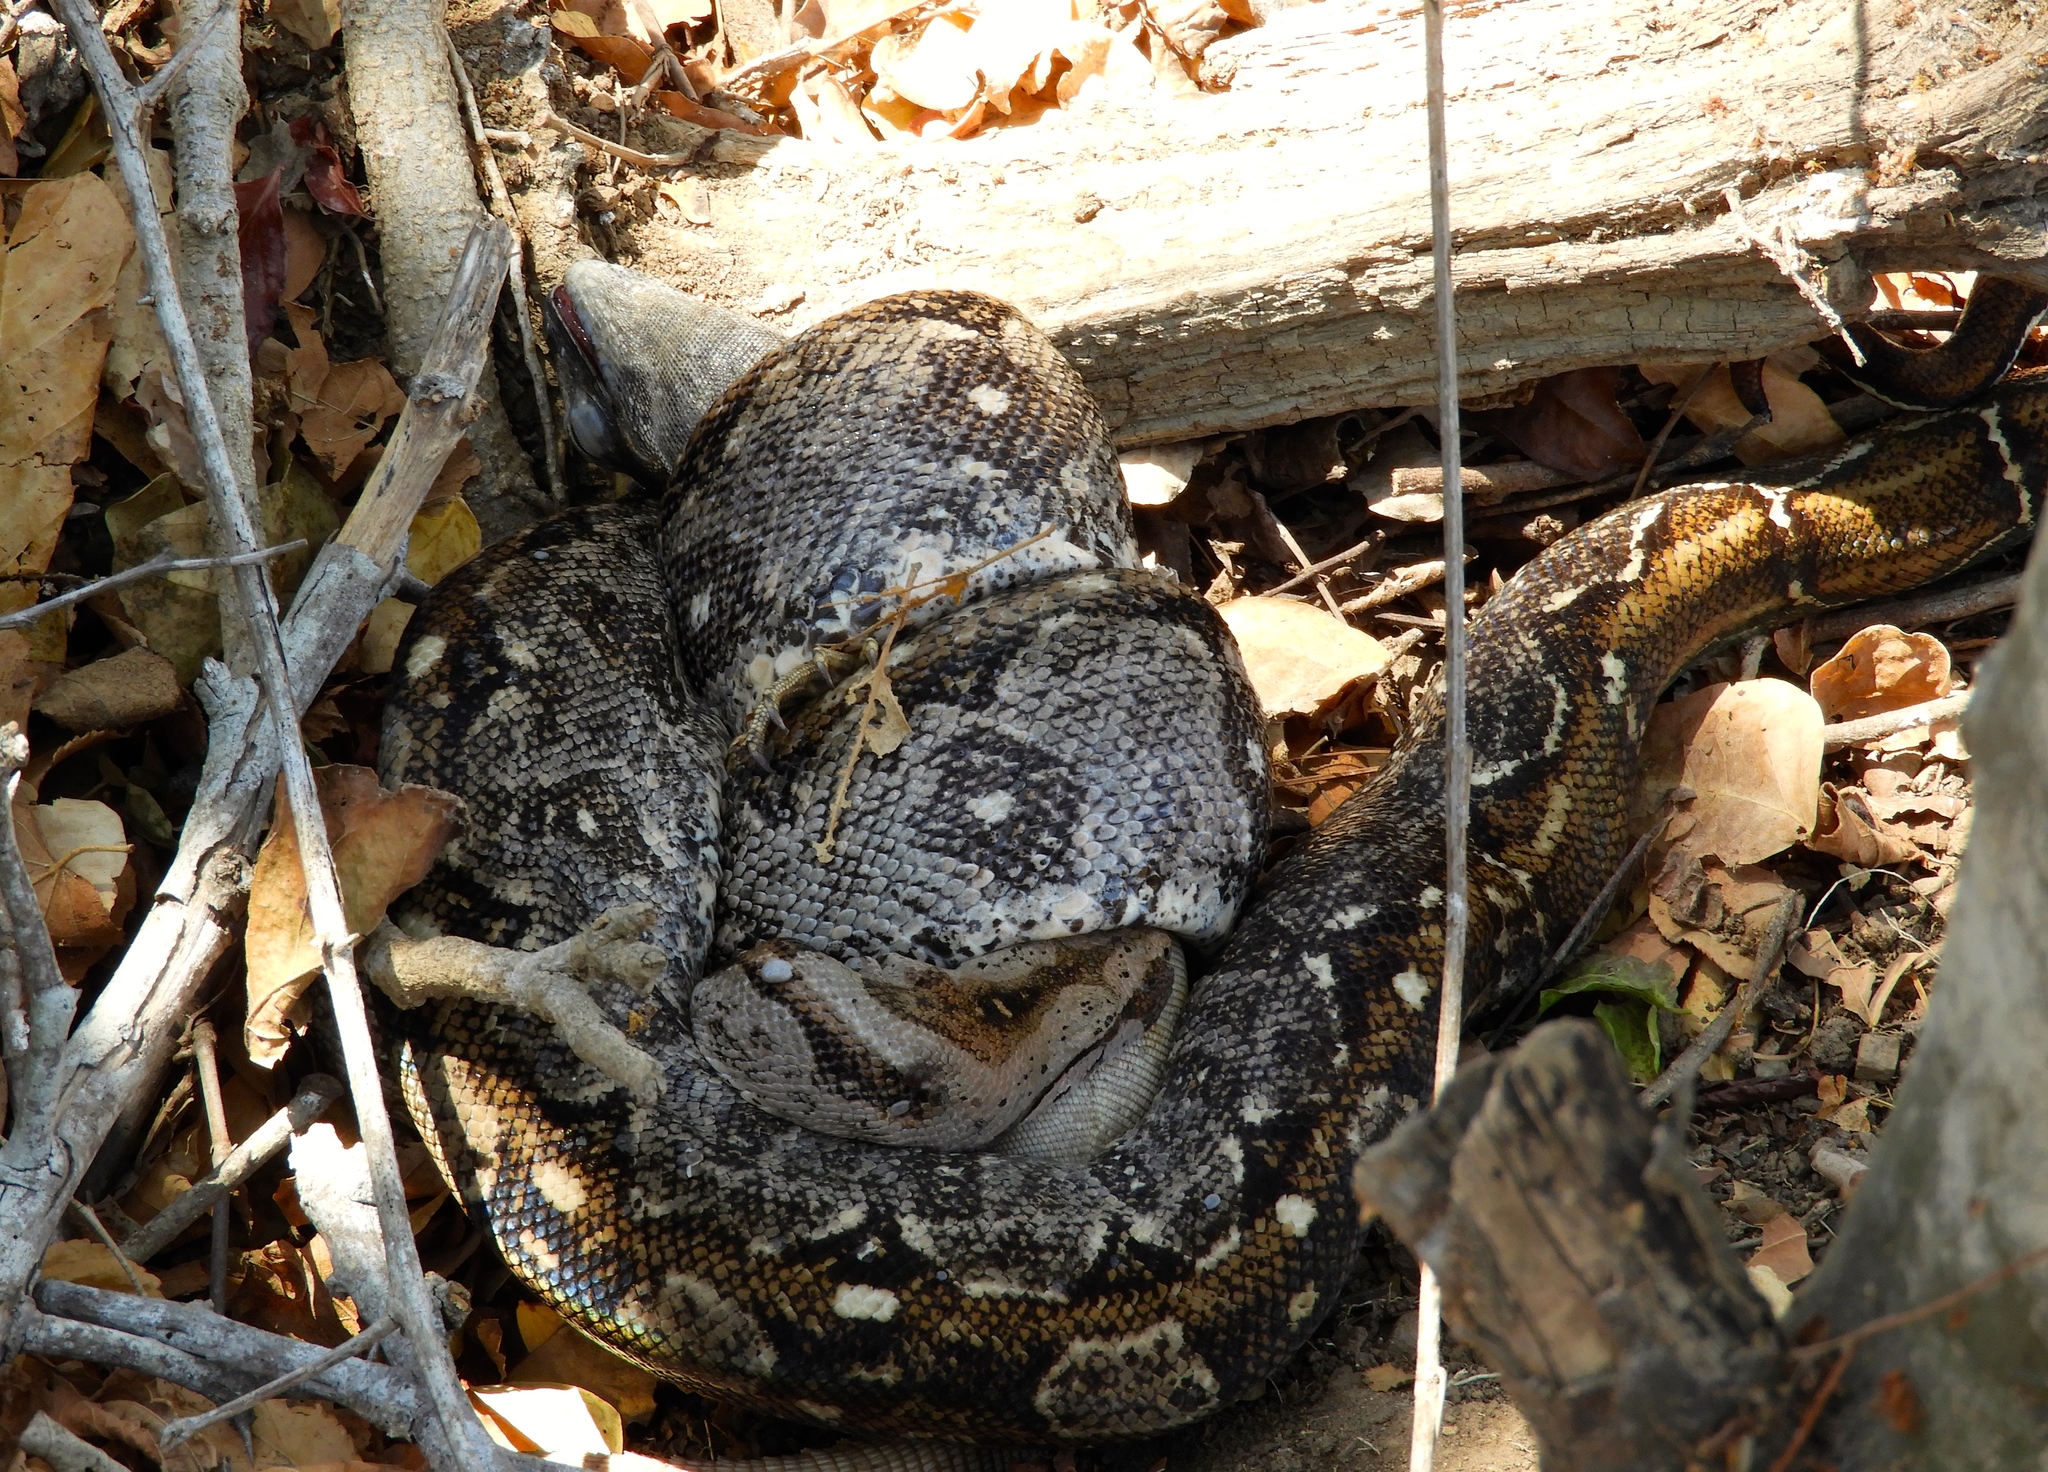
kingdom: Animalia
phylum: Chordata
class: Squamata
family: Boidae
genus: Boa
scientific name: Boa
